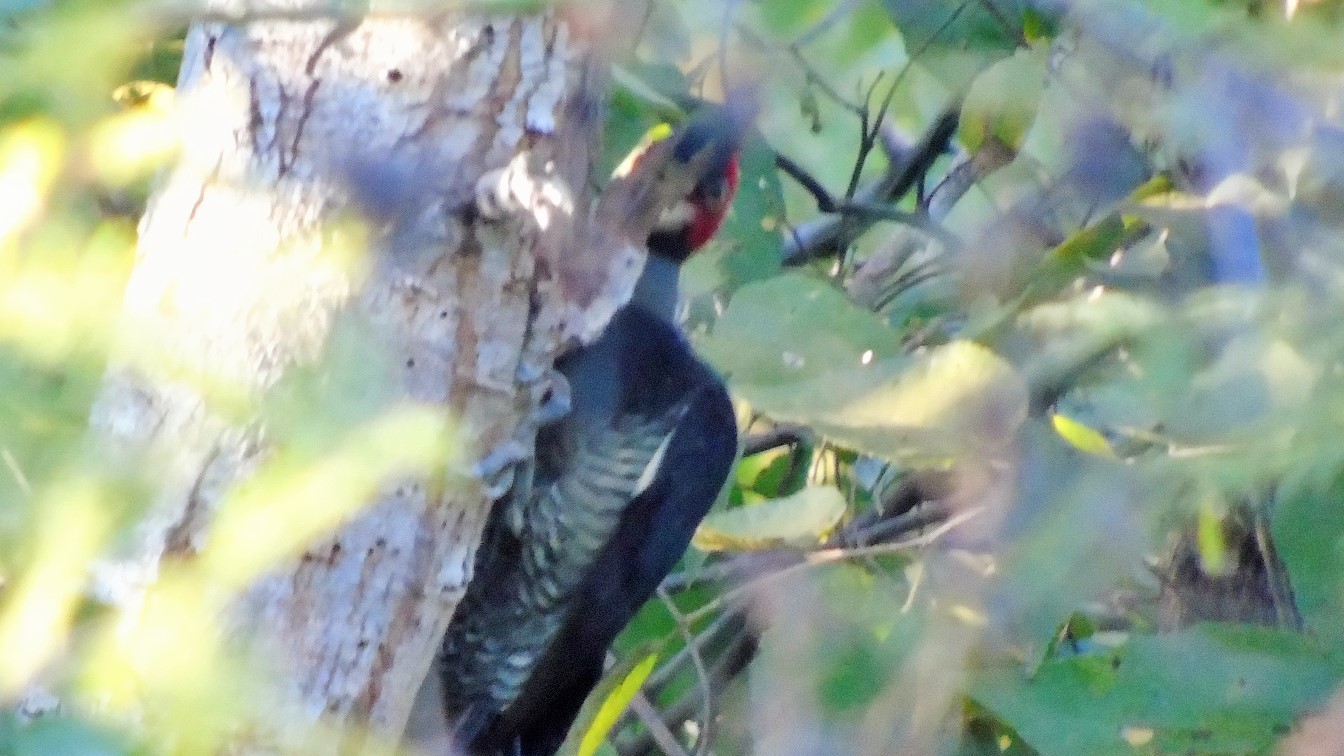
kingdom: Animalia
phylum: Chordata
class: Aves
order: Piciformes
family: Picidae
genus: Campephilus
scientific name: Campephilus guatemalensis
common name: Pale-billed woodpecker
